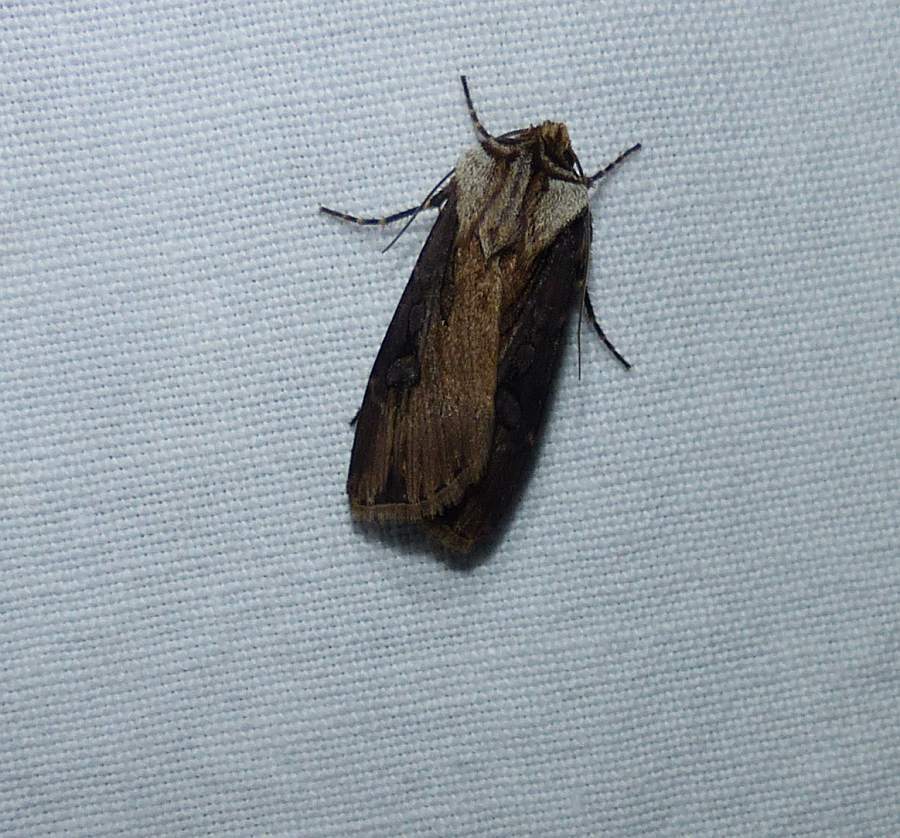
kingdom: Animalia
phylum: Arthropoda
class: Insecta
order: Lepidoptera
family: Noctuidae
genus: Agrotis
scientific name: Agrotis volubilis
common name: Voluble dart
